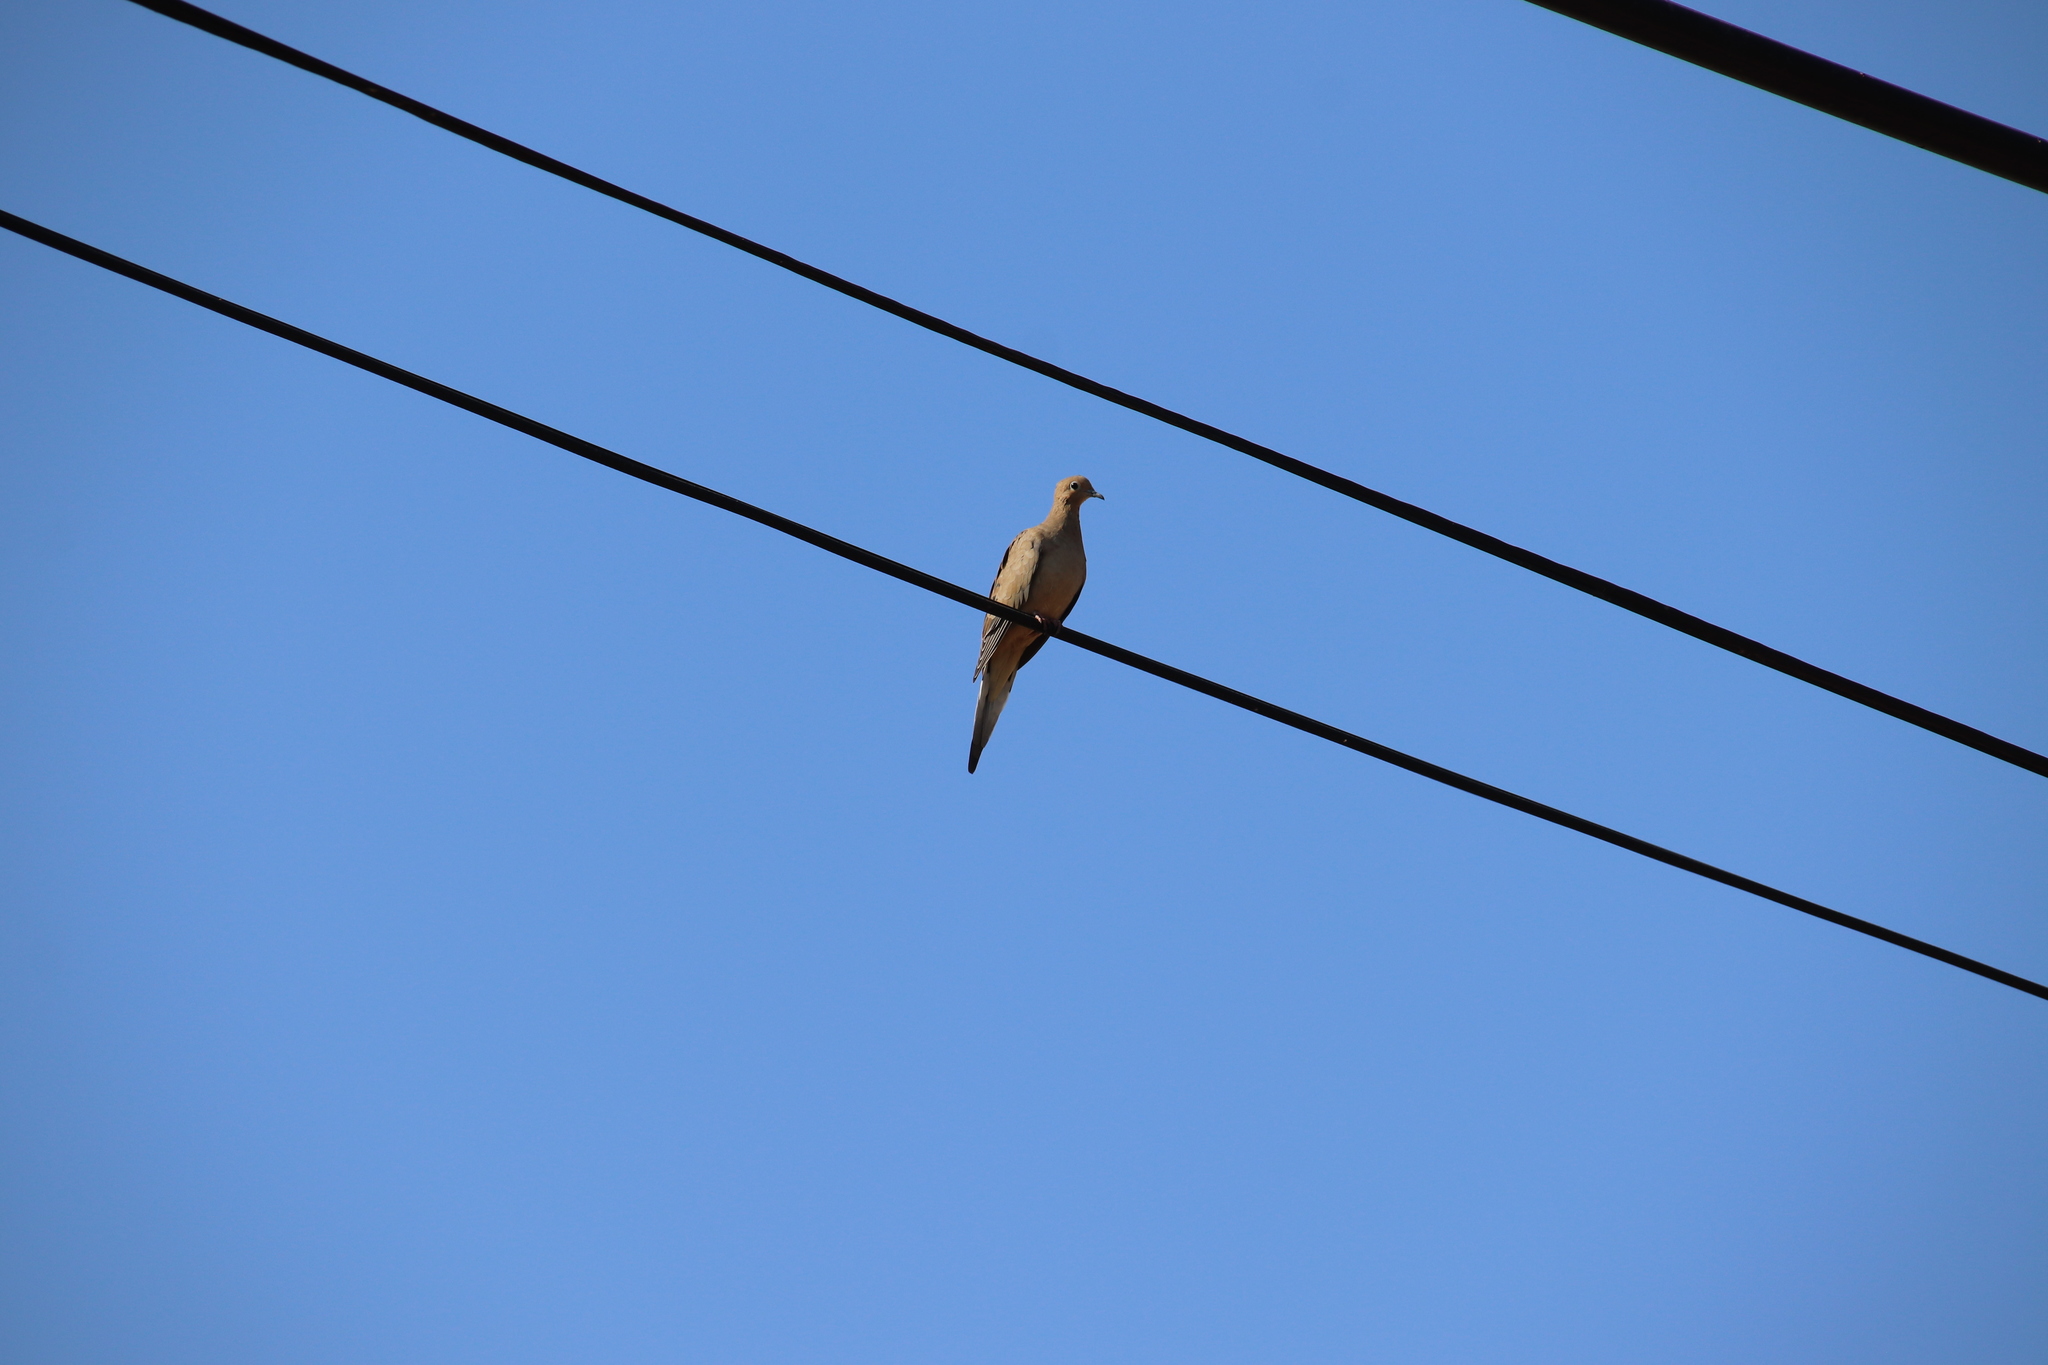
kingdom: Animalia
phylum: Chordata
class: Aves
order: Columbiformes
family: Columbidae
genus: Zenaida
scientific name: Zenaida macroura
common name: Mourning dove
